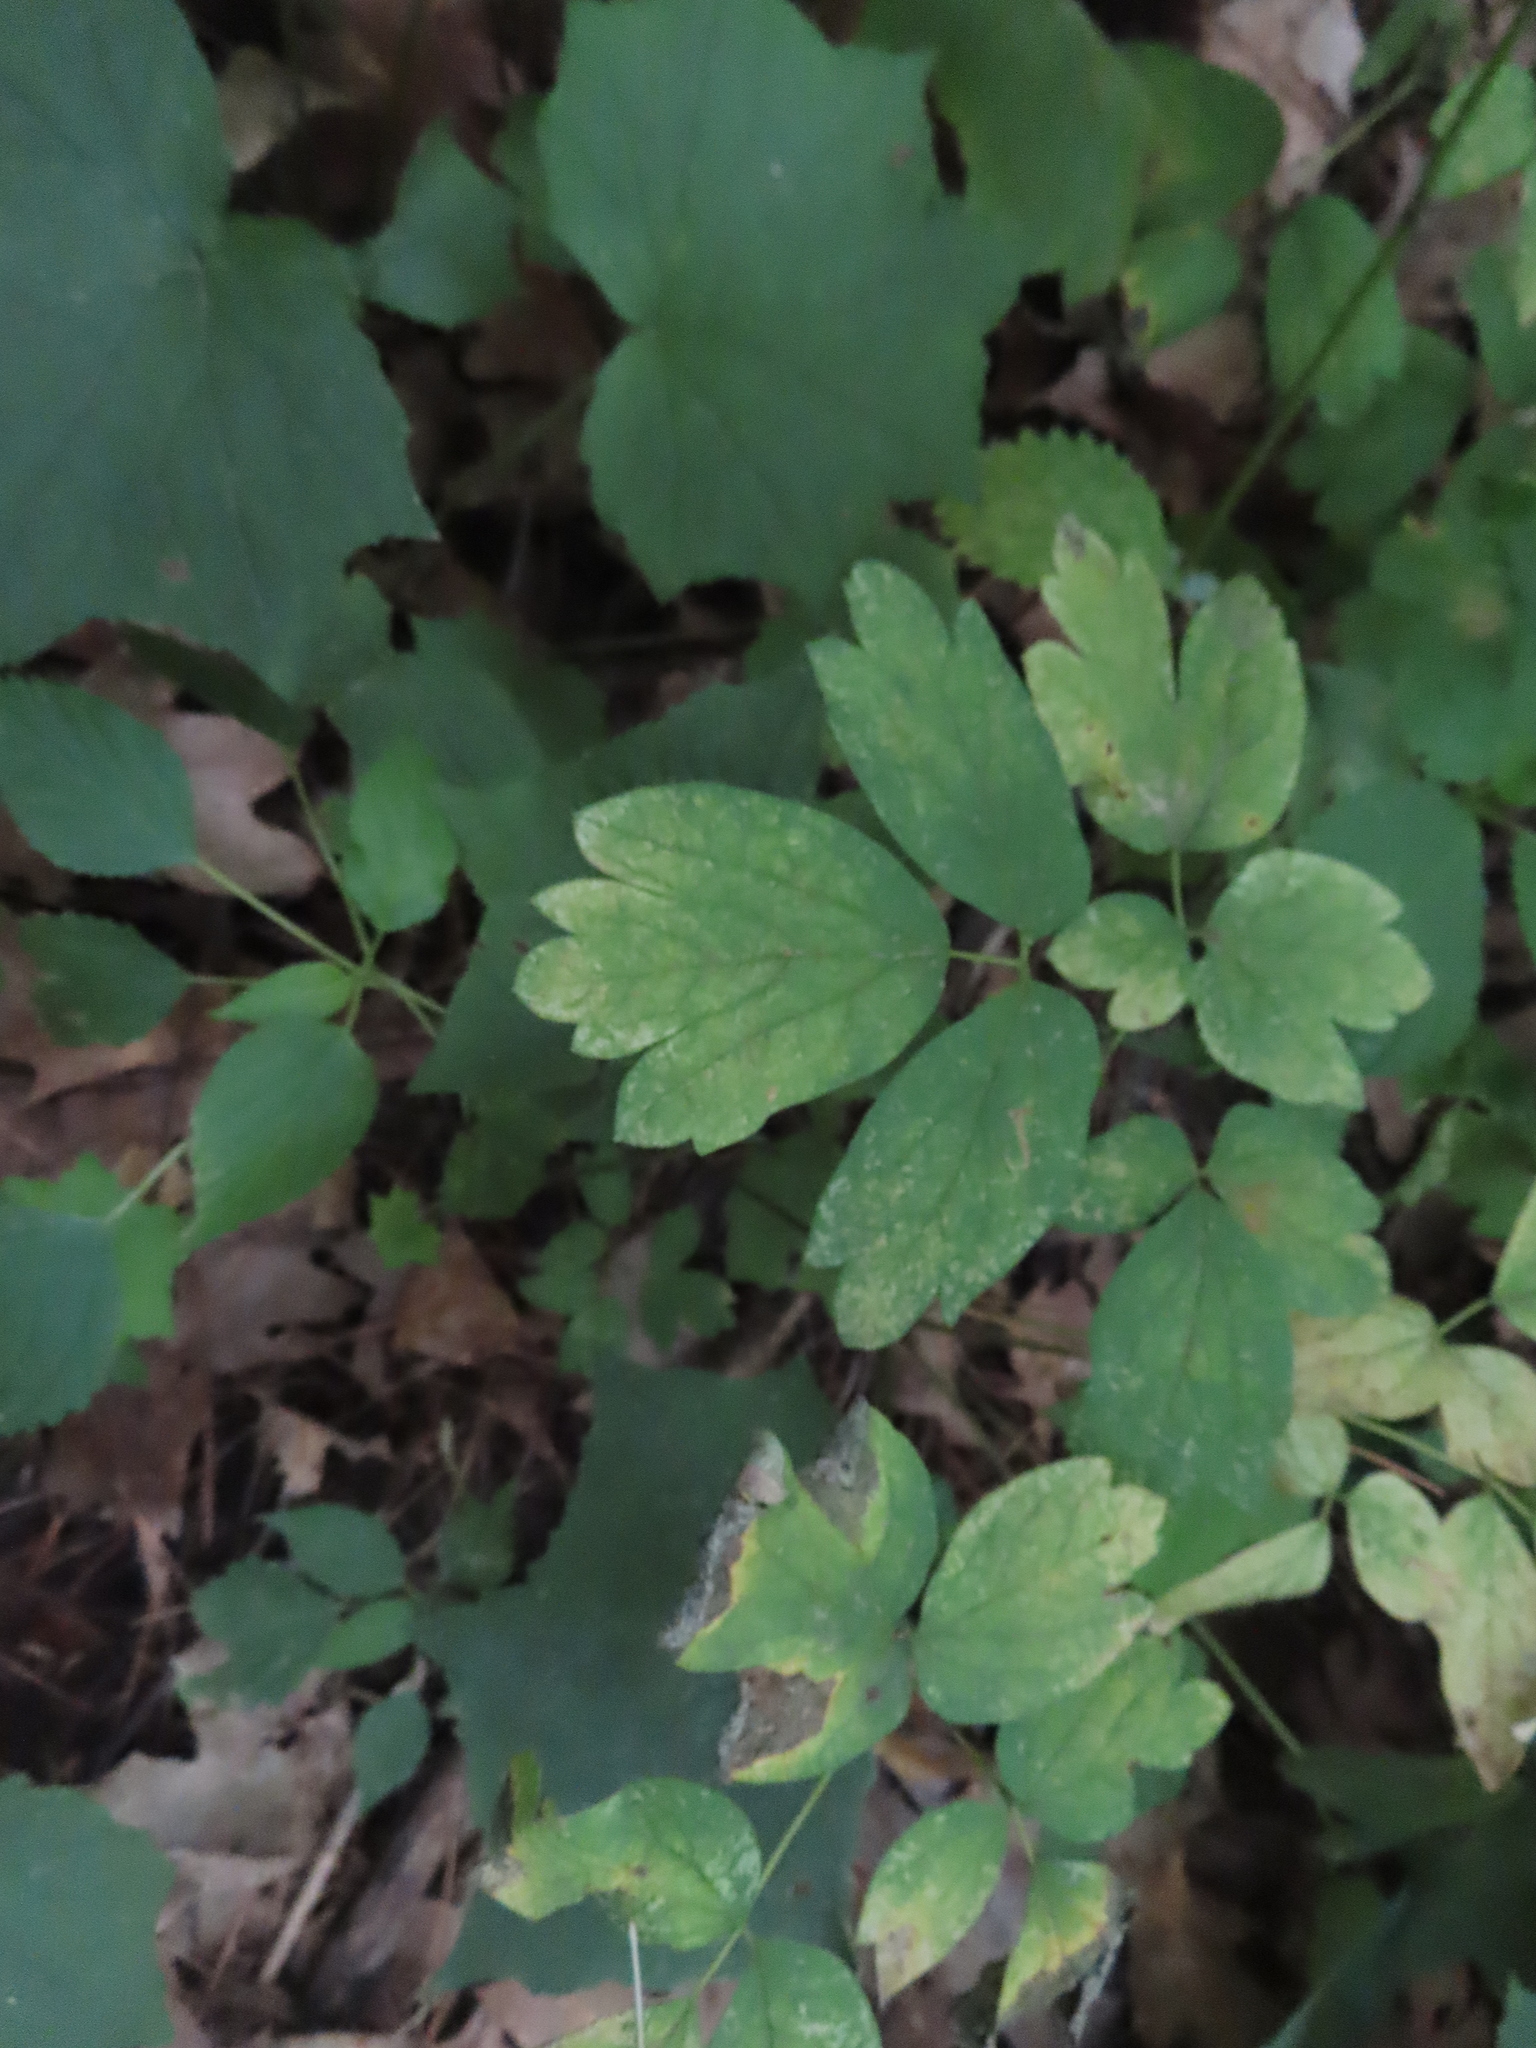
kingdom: Plantae
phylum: Tracheophyta
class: Magnoliopsida
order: Ranunculales
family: Berberidaceae
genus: Caulophyllum
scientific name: Caulophyllum thalictroides
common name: Blue cohosh
